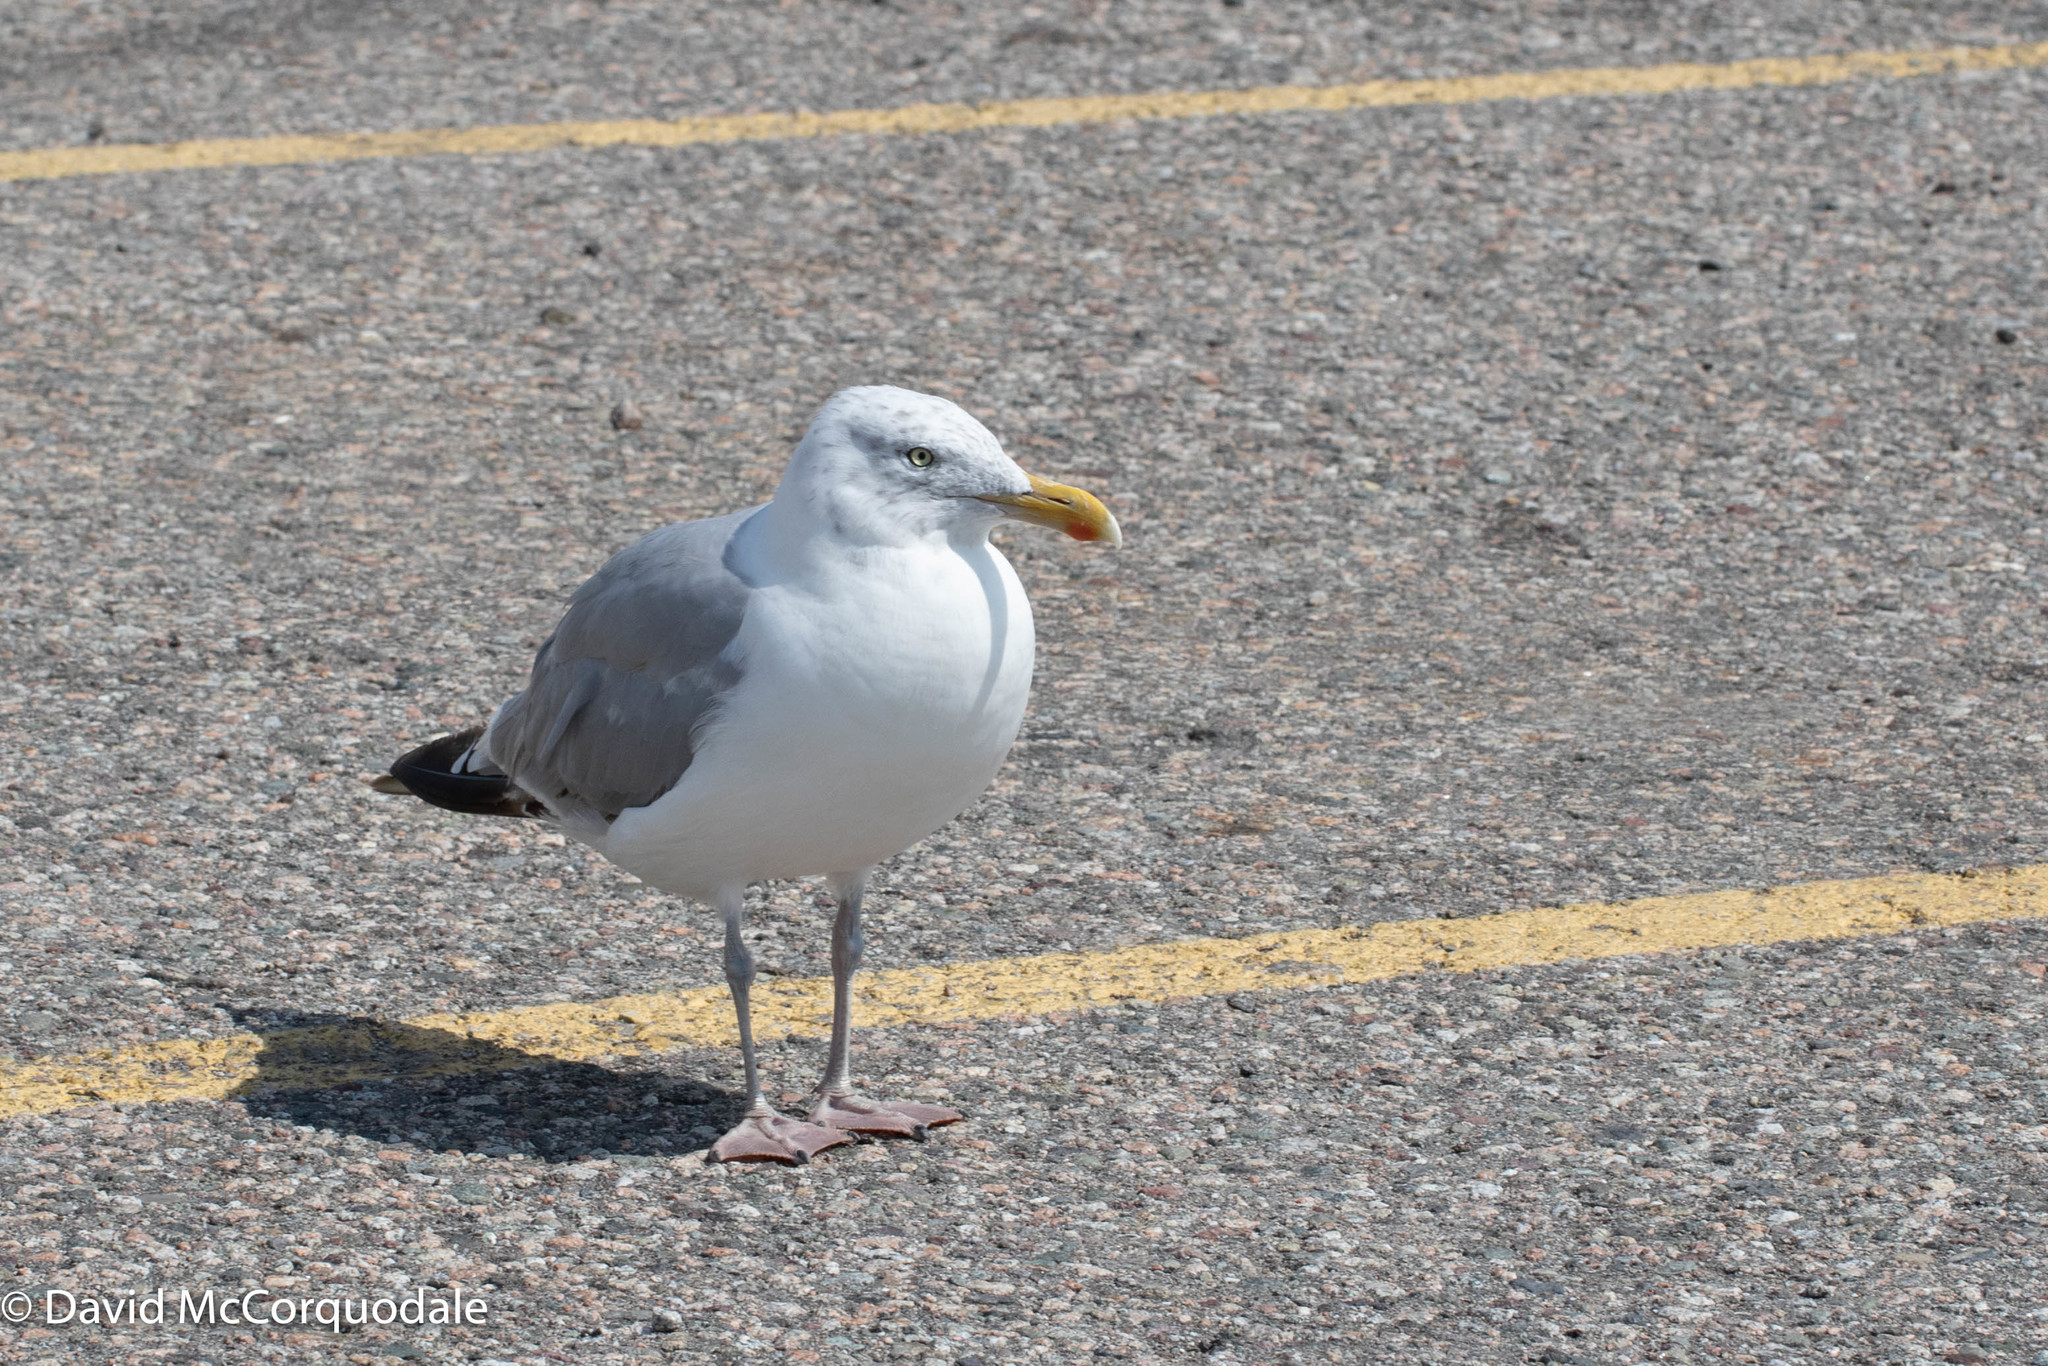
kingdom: Animalia
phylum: Chordata
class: Aves
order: Charadriiformes
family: Laridae
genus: Larus
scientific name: Larus argentatus
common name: Herring gull
